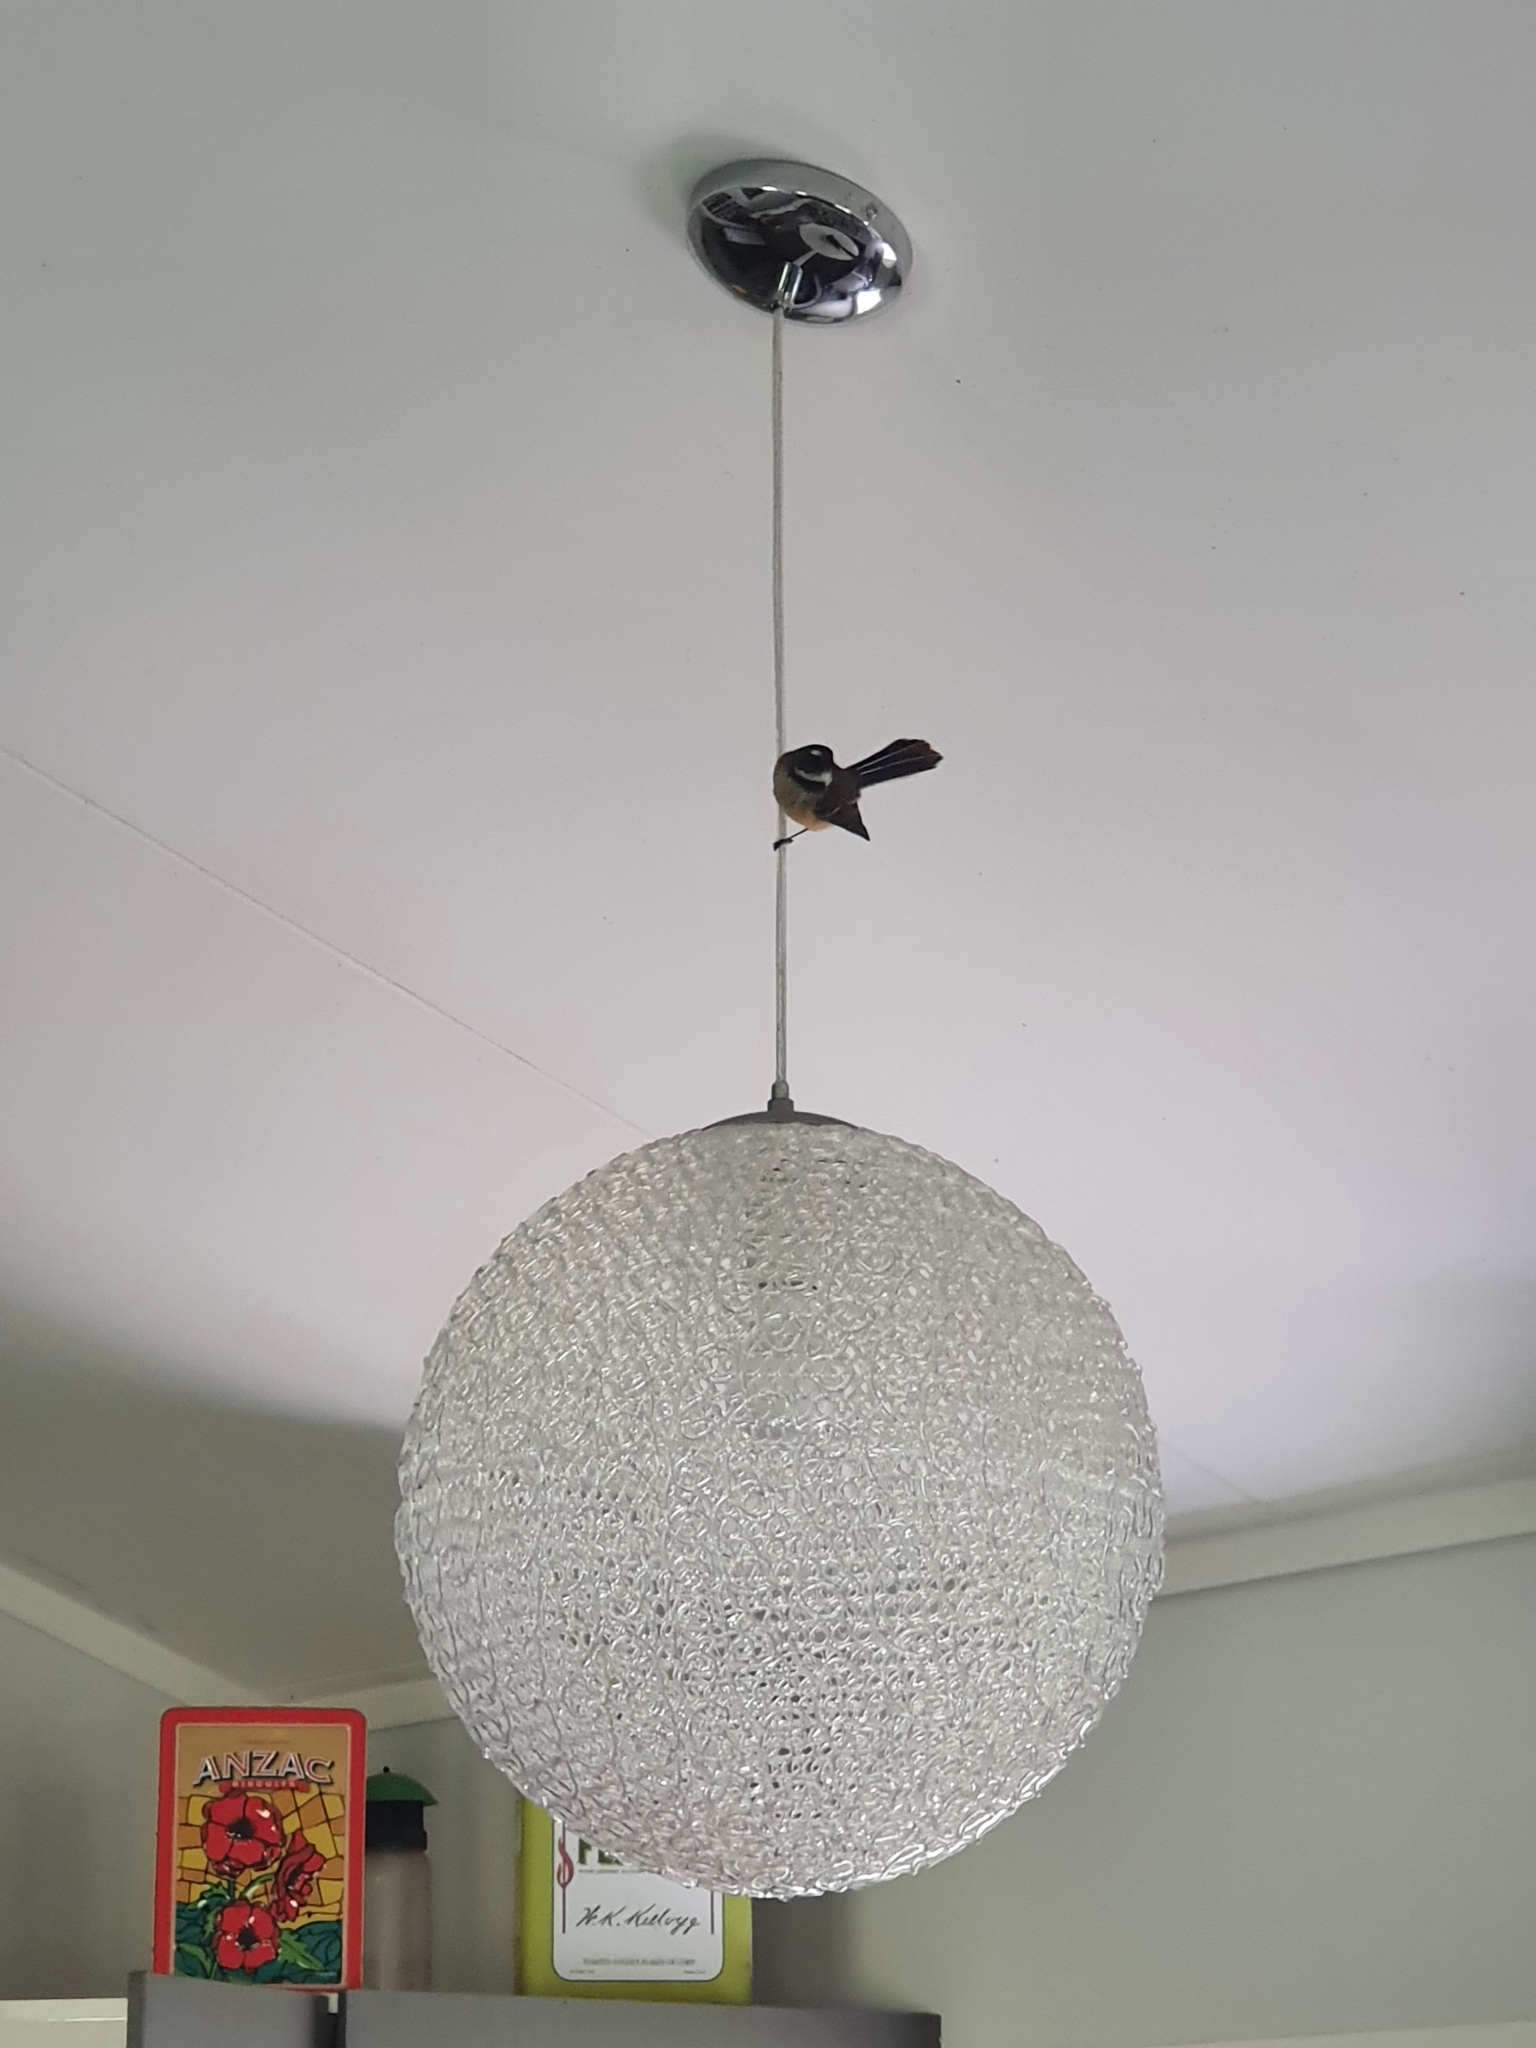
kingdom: Animalia
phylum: Chordata
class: Aves
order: Passeriformes
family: Rhipiduridae
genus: Rhipidura
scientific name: Rhipidura fuliginosa
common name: New zealand fantail
